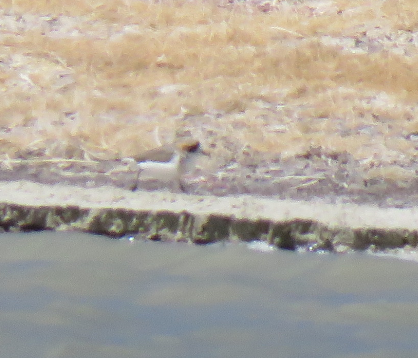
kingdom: Animalia
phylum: Chordata
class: Aves
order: Charadriiformes
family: Charadriidae
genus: Anarhynchus
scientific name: Anarhynchus
